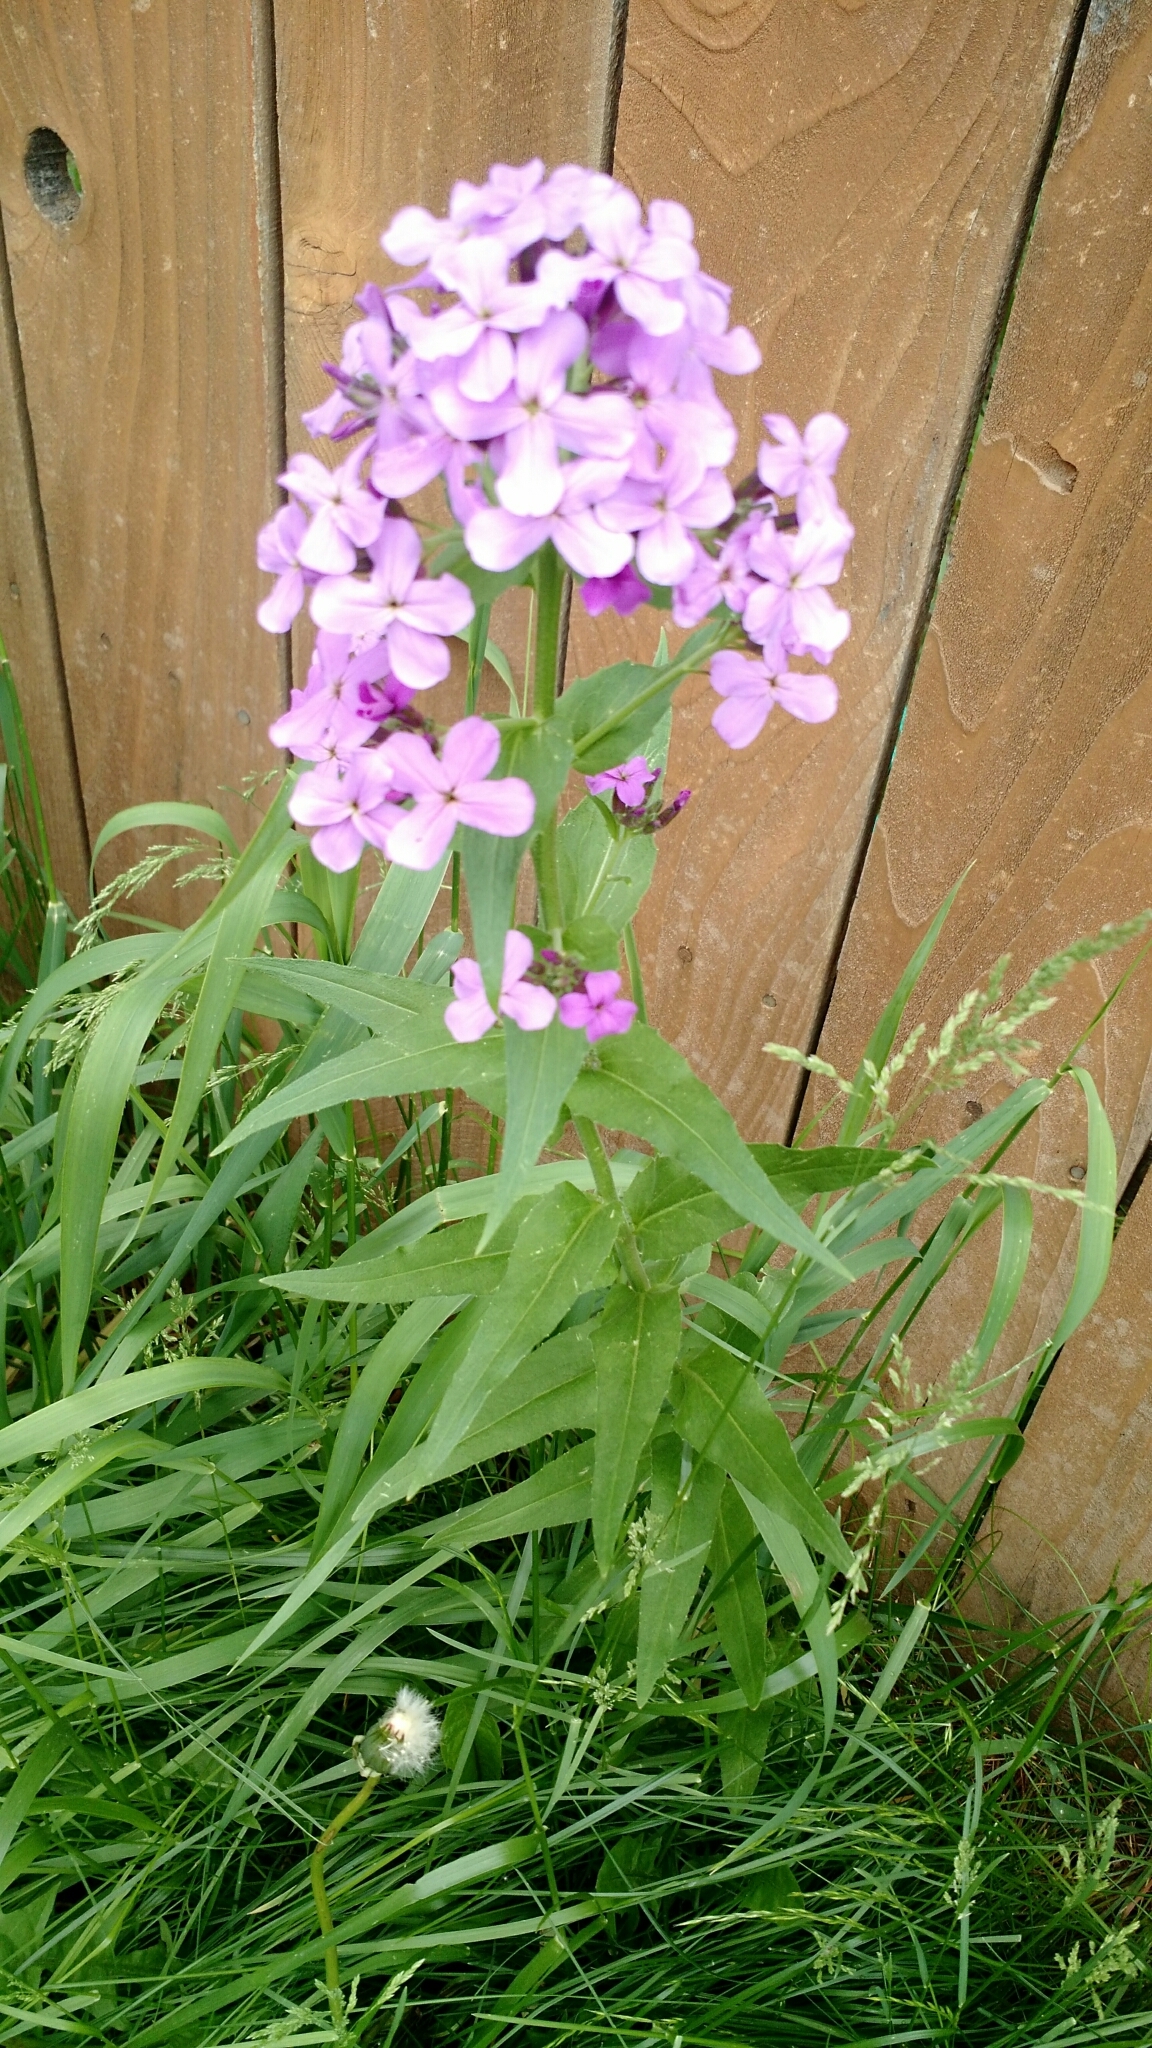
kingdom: Plantae
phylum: Tracheophyta
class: Magnoliopsida
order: Brassicales
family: Brassicaceae
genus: Hesperis
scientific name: Hesperis matronalis
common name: Dame's-violet
